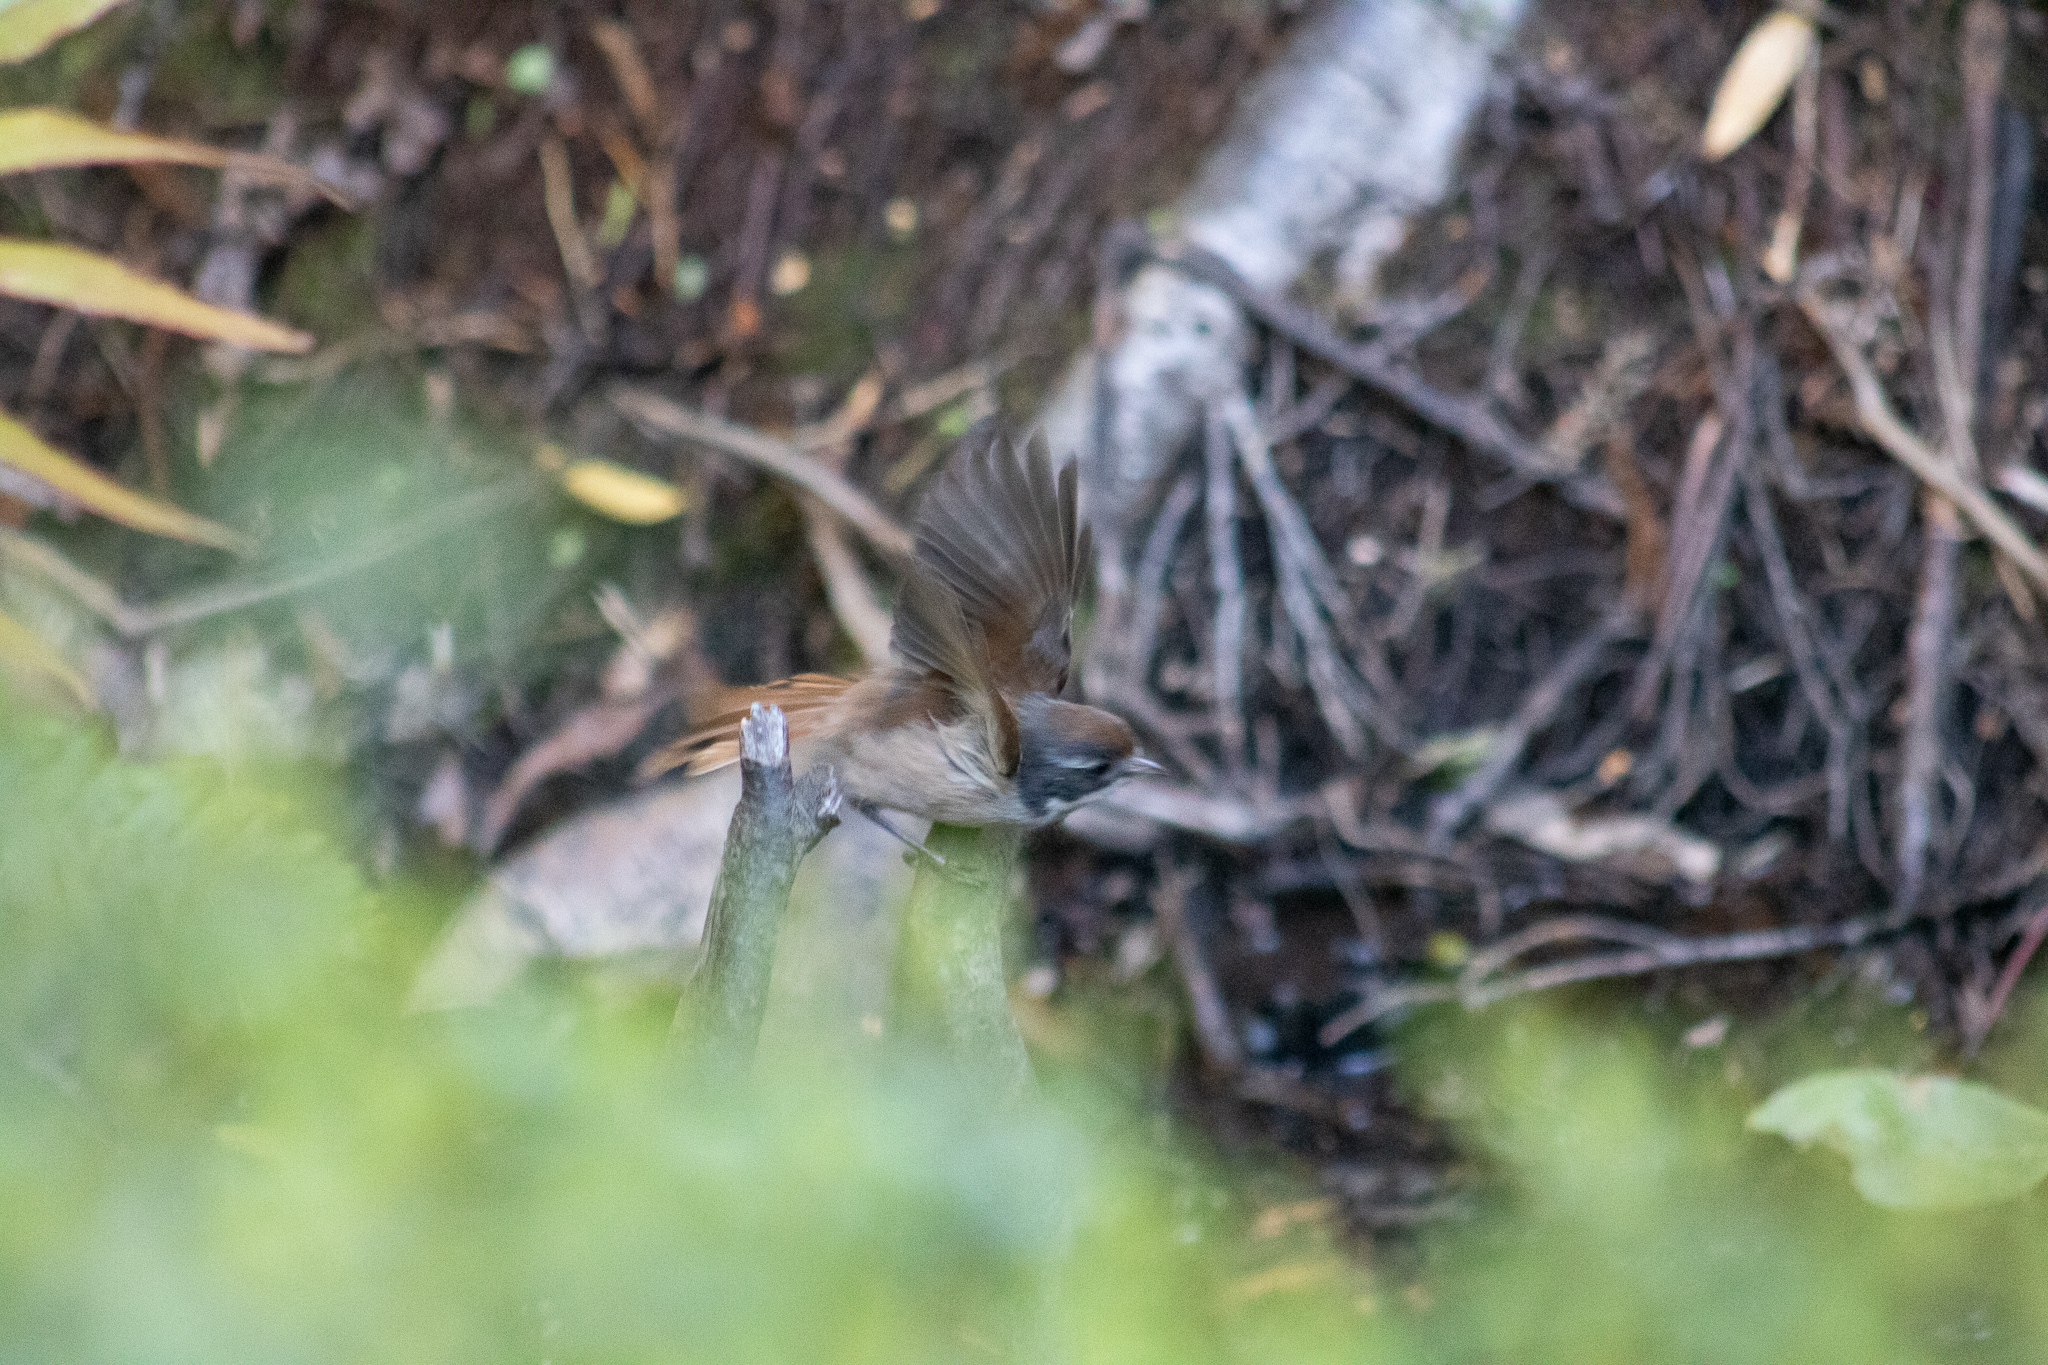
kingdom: Animalia
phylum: Chordata
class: Aves
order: Passeriformes
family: Acanthizidae
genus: Finschia
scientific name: Finschia novaeseelandiae
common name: Pipipi
